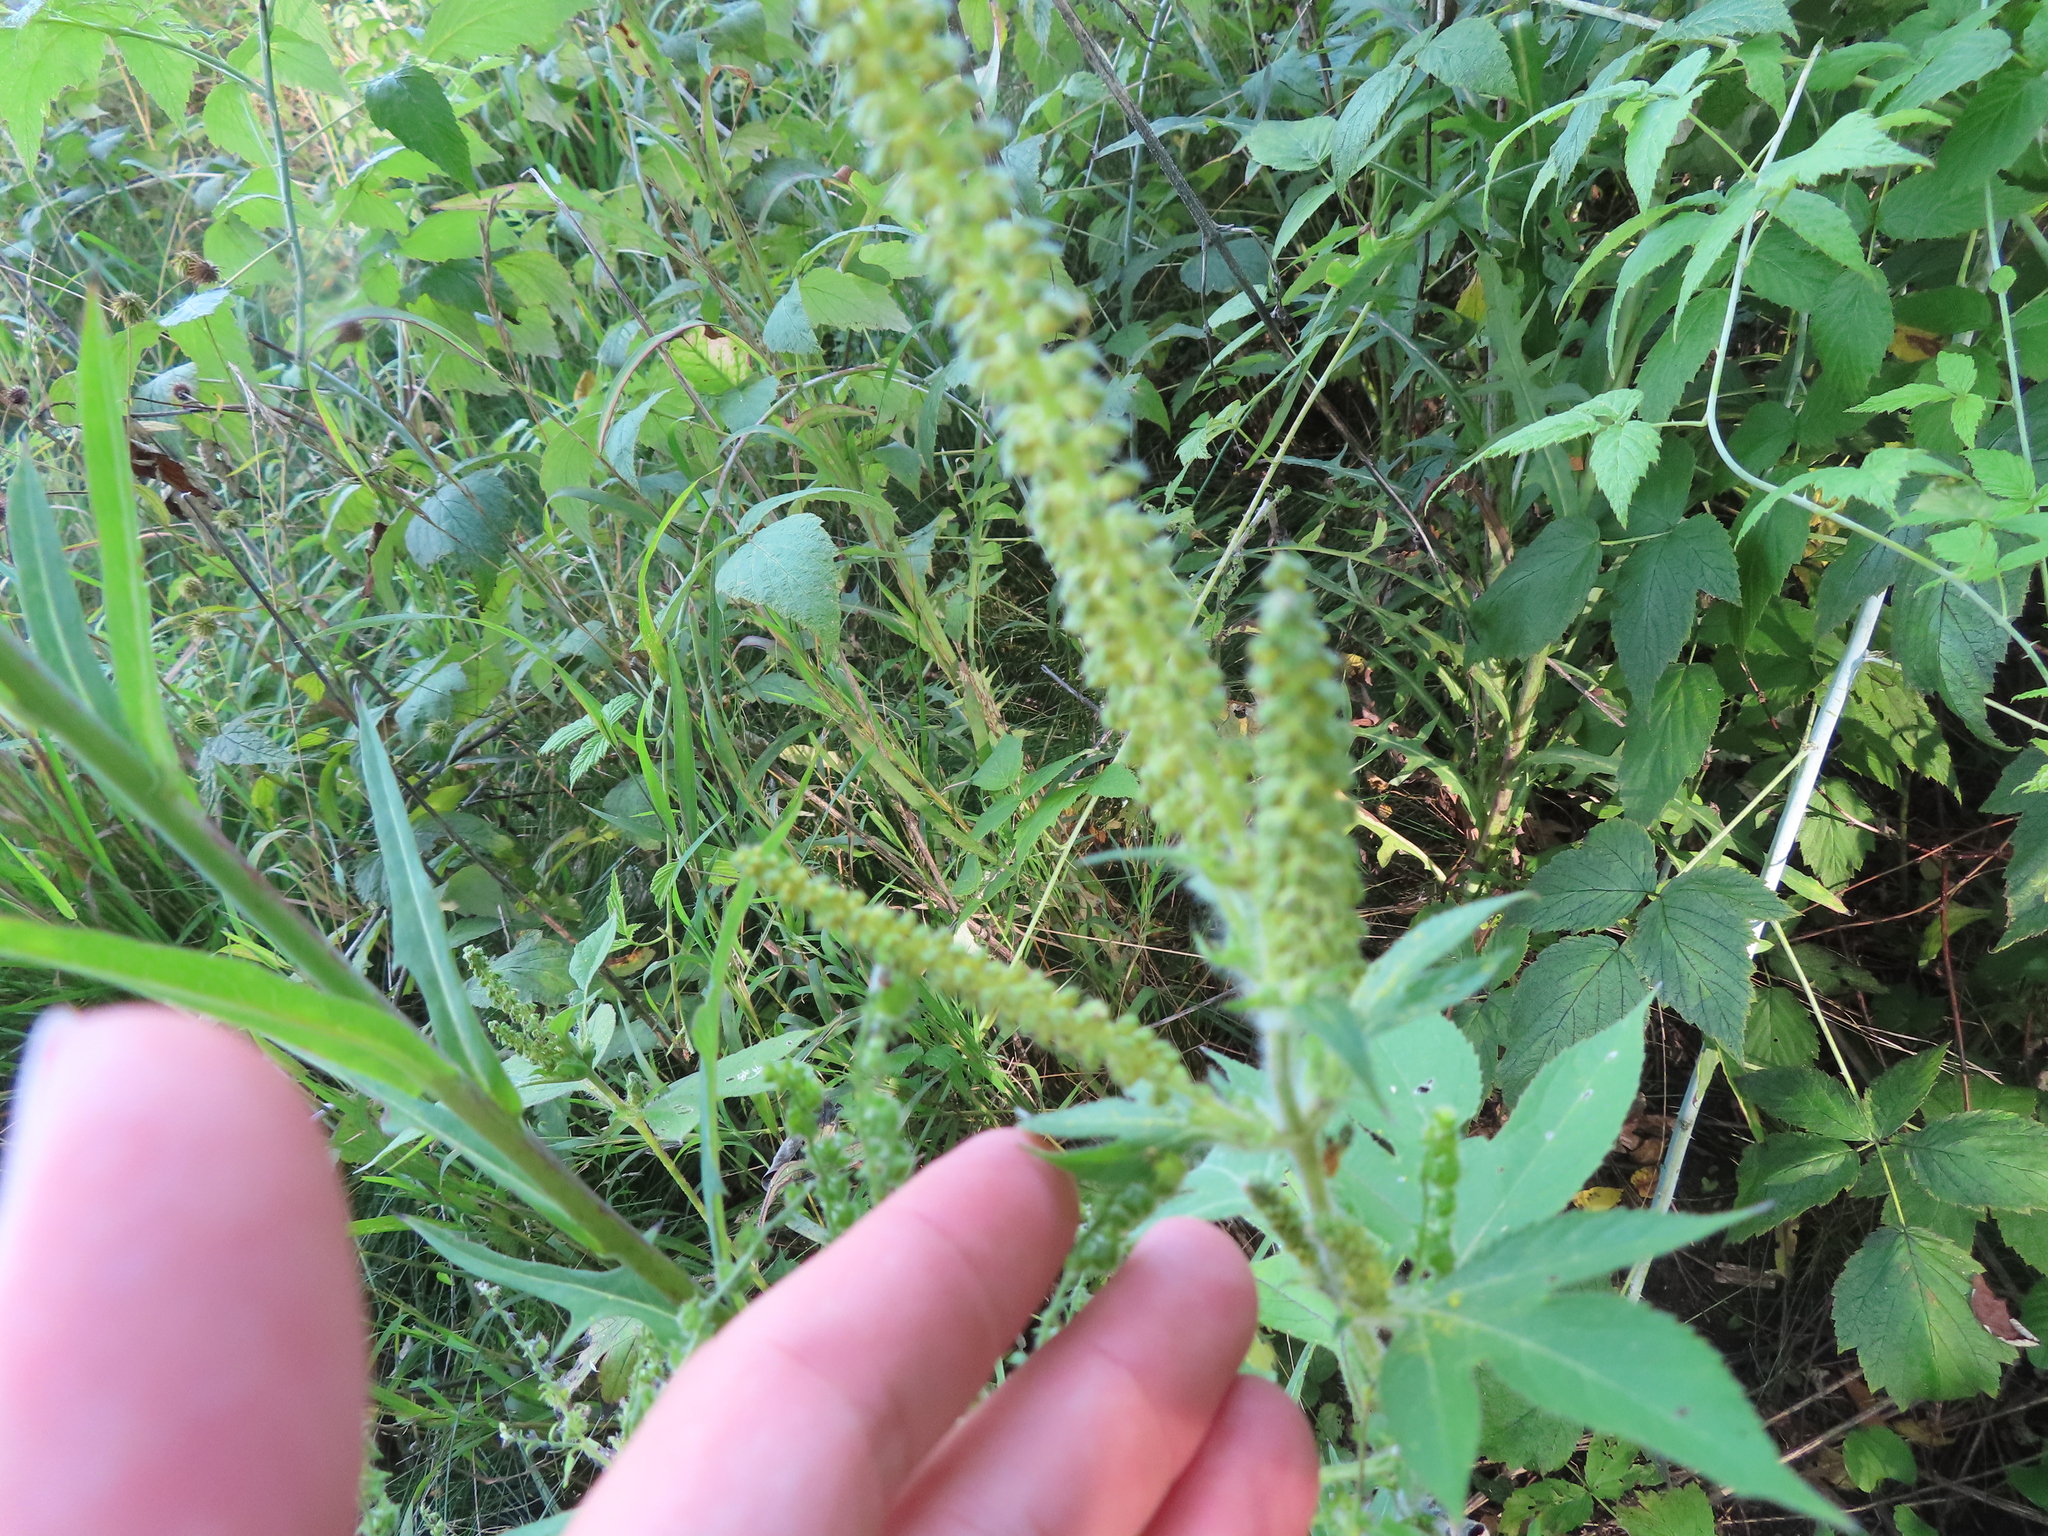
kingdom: Plantae
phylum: Tracheophyta
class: Magnoliopsida
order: Asterales
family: Asteraceae
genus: Ambrosia
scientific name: Ambrosia trifida
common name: Giant ragweed
